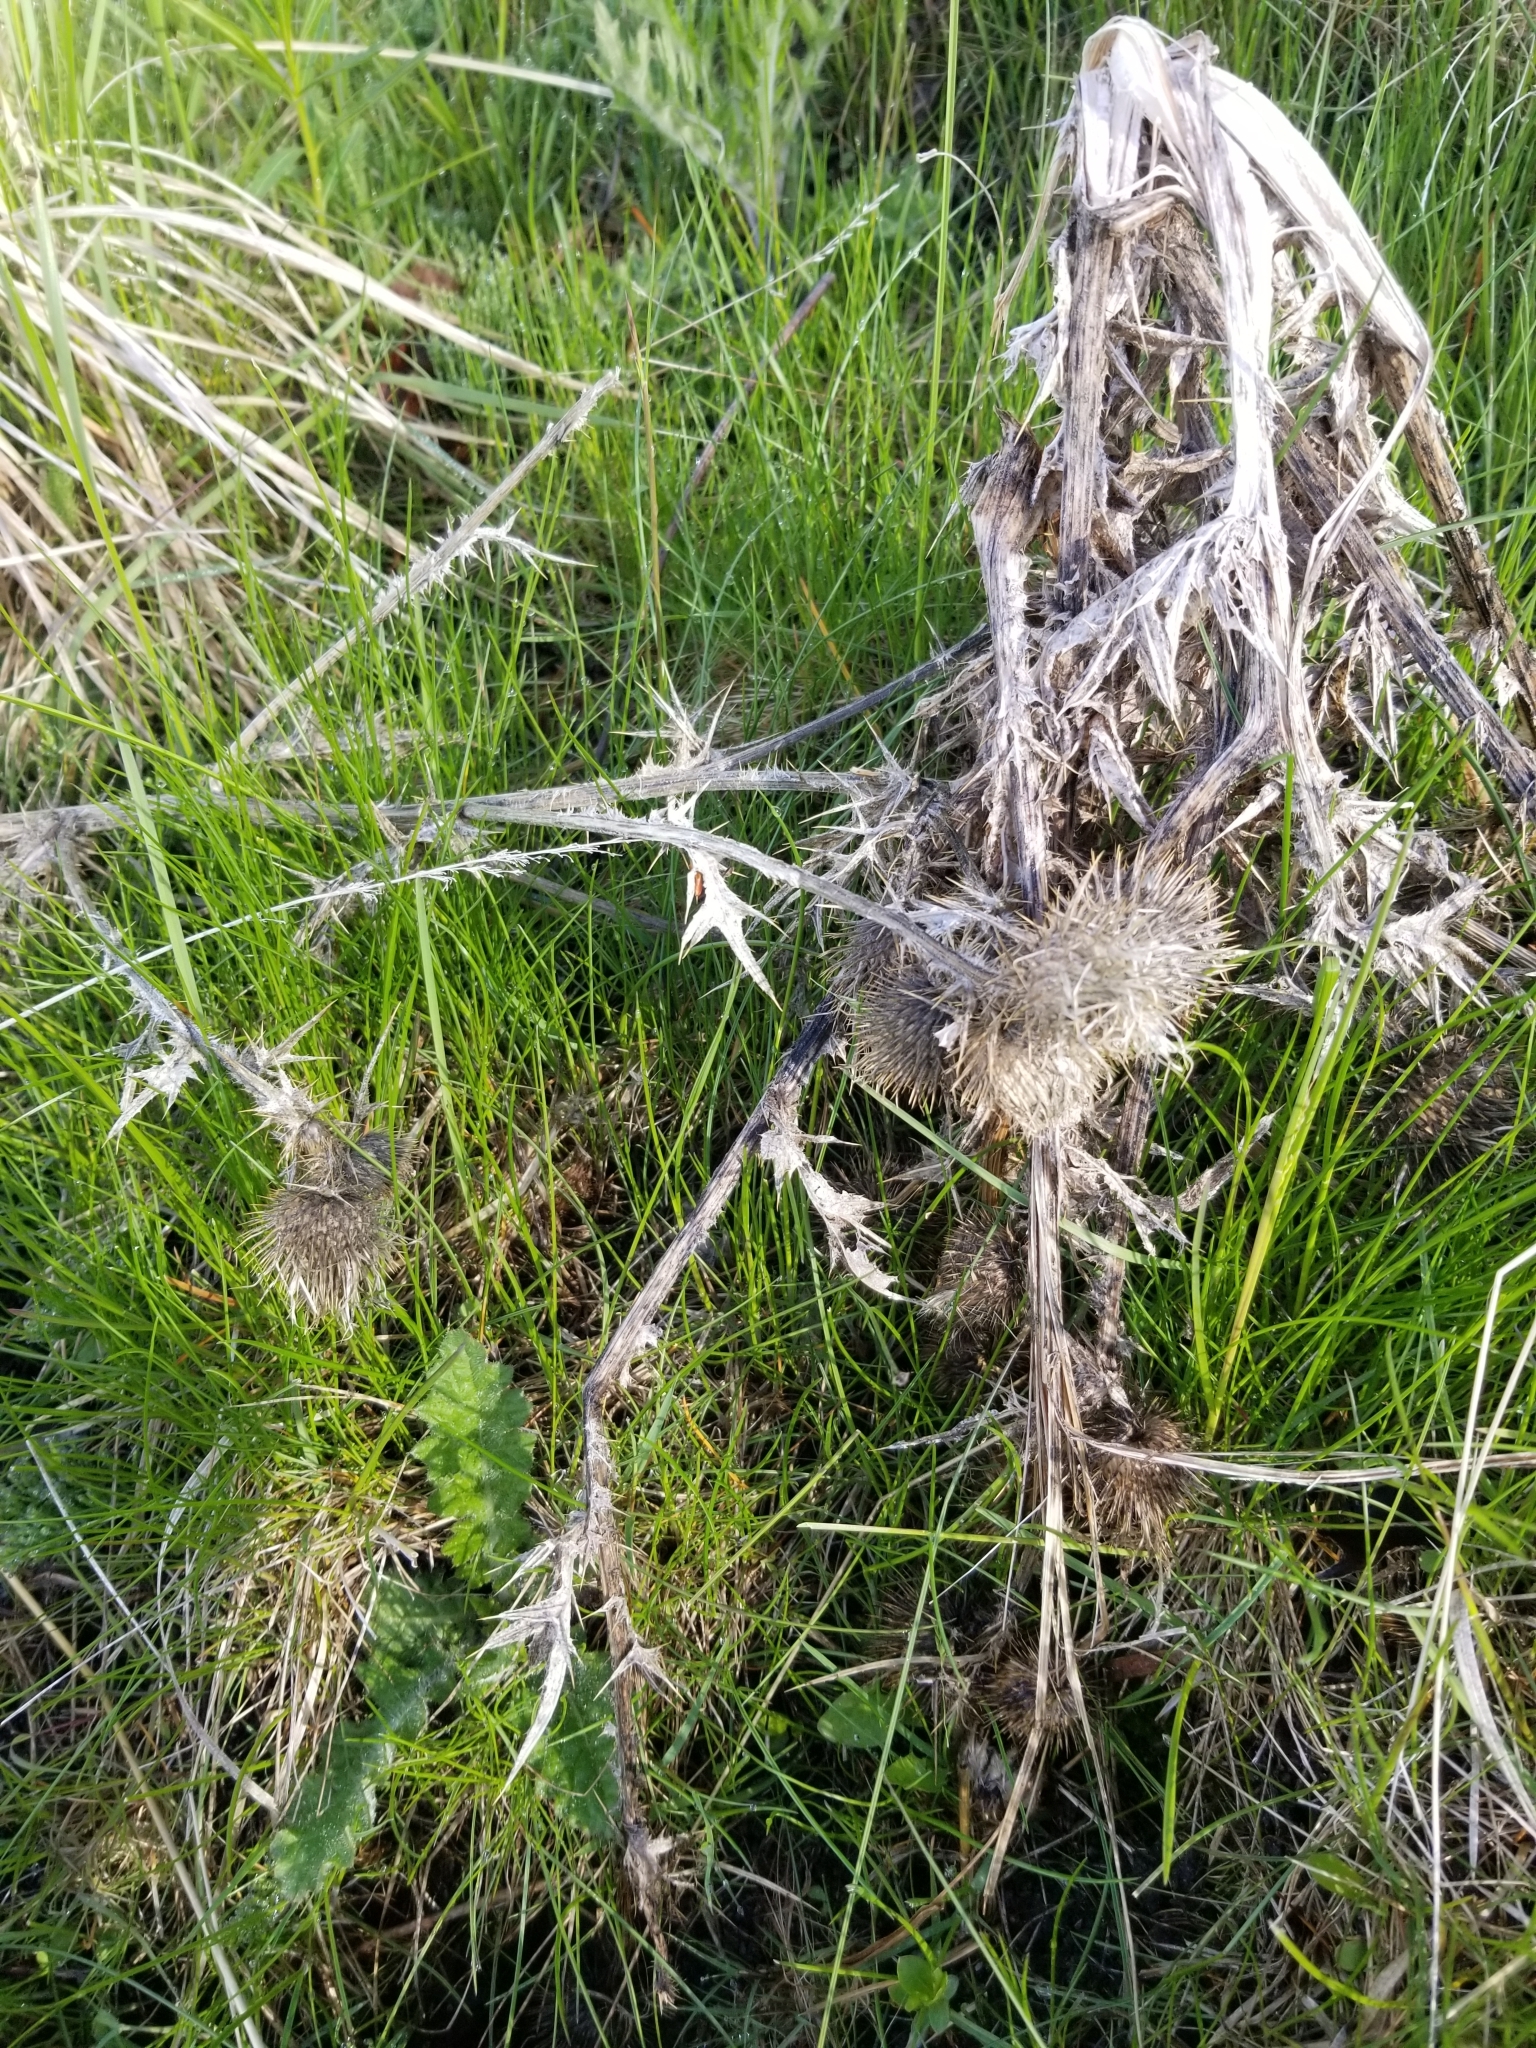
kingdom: Plantae
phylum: Tracheophyta
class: Magnoliopsida
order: Asterales
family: Asteraceae
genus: Cirsium
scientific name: Cirsium vulgare
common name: Bull thistle
